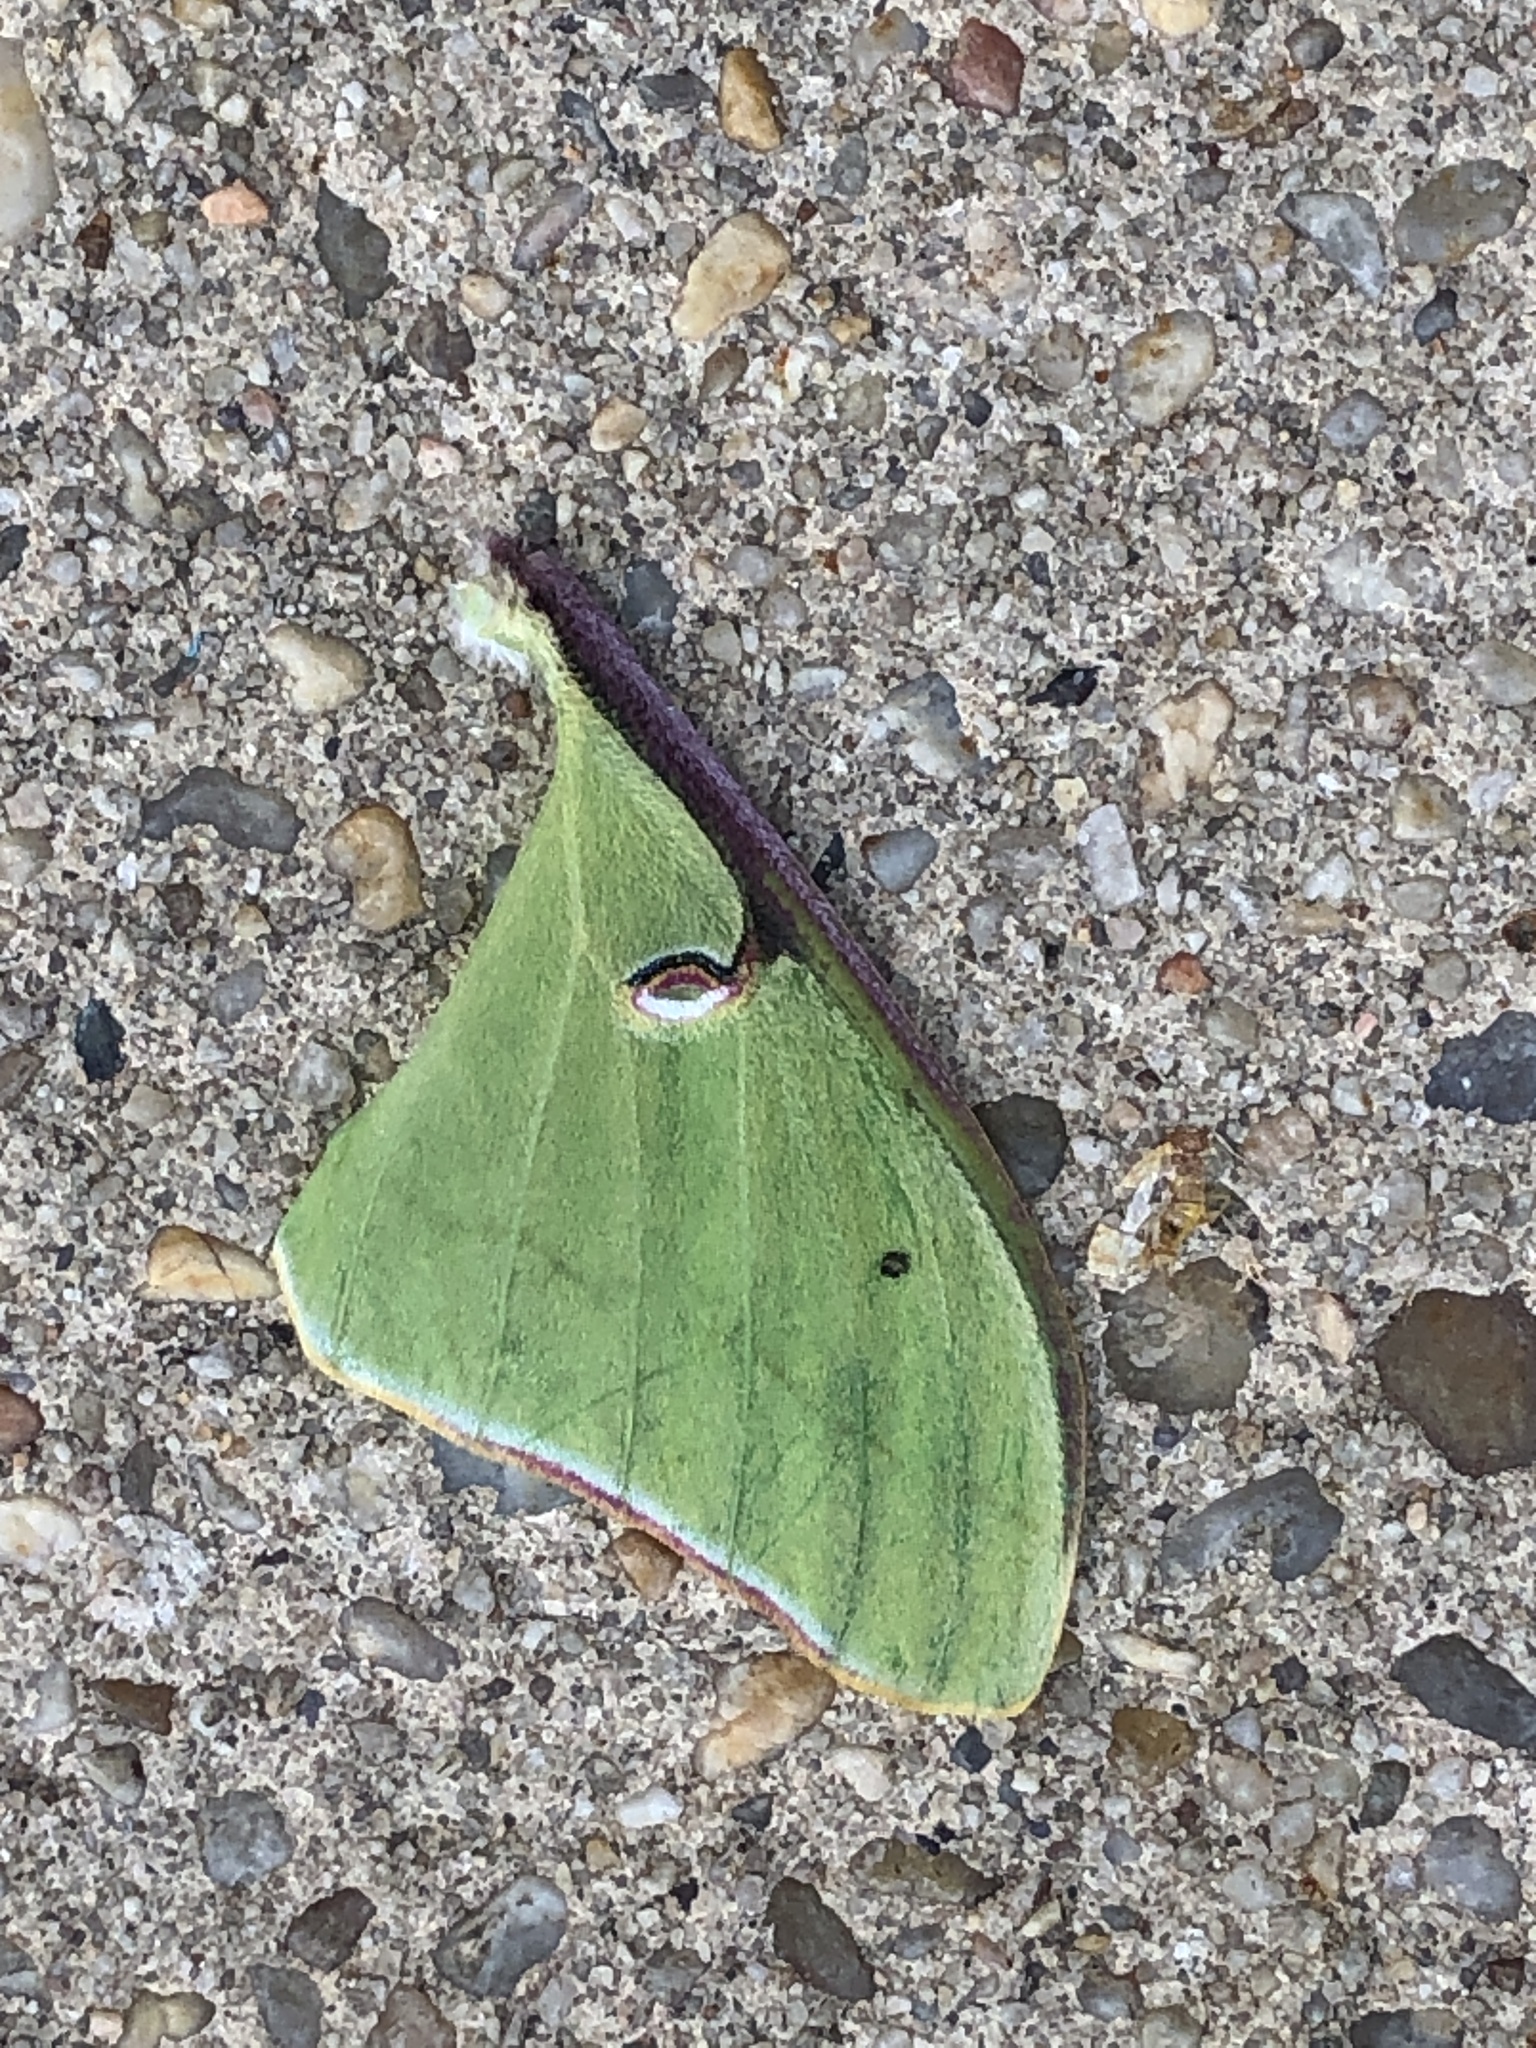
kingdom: Animalia
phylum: Arthropoda
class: Insecta
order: Lepidoptera
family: Saturniidae
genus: Actias
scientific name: Actias luna
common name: Luna moth
